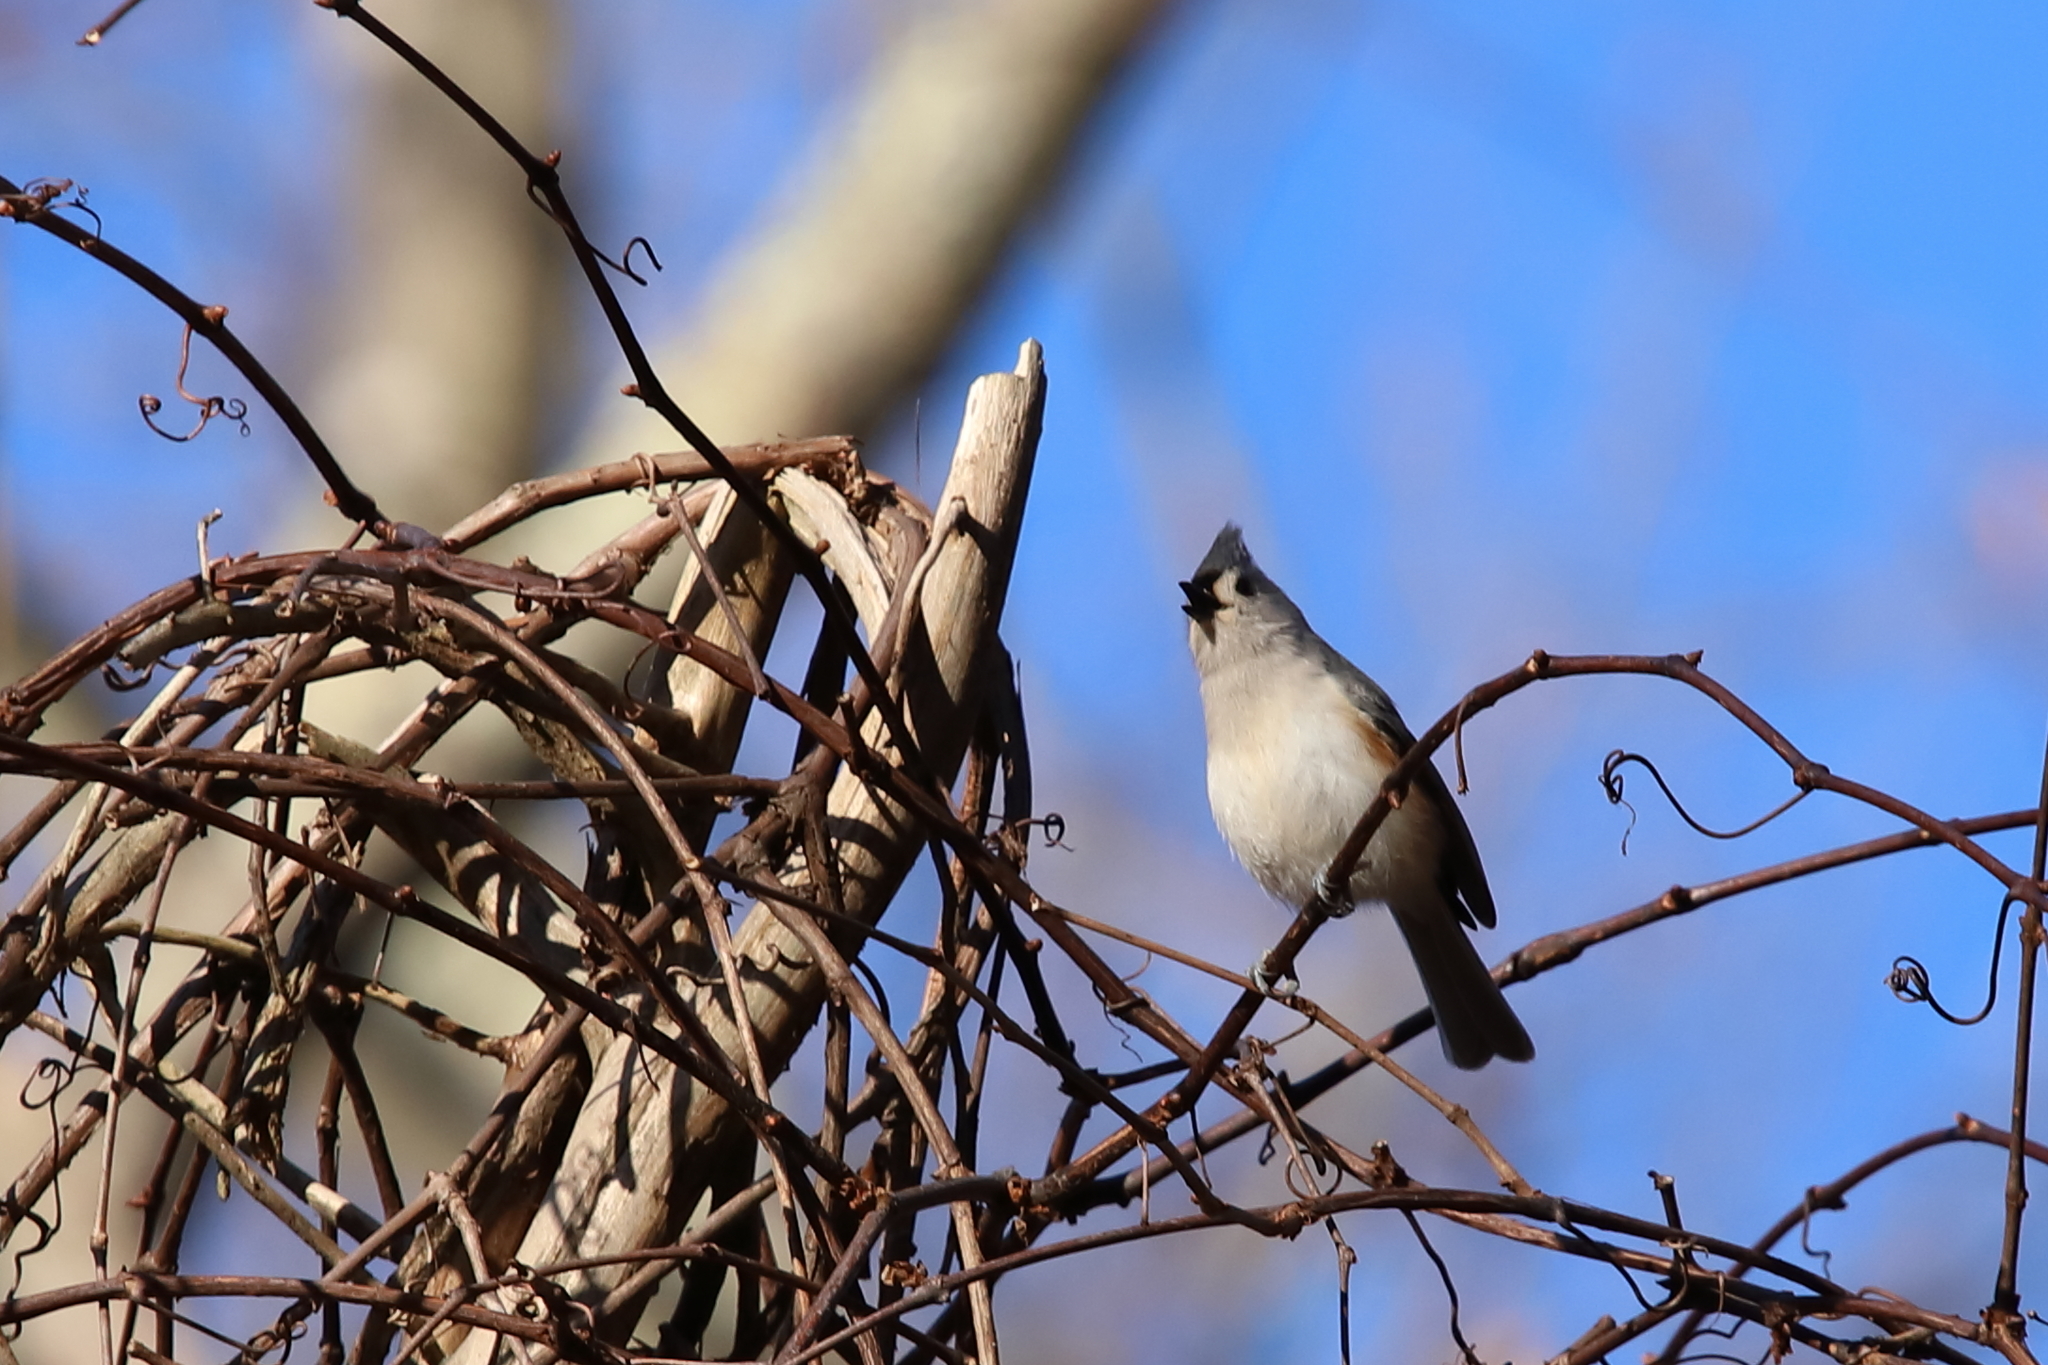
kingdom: Animalia
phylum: Chordata
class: Aves
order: Passeriformes
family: Paridae
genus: Baeolophus
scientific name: Baeolophus bicolor
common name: Tufted titmouse
